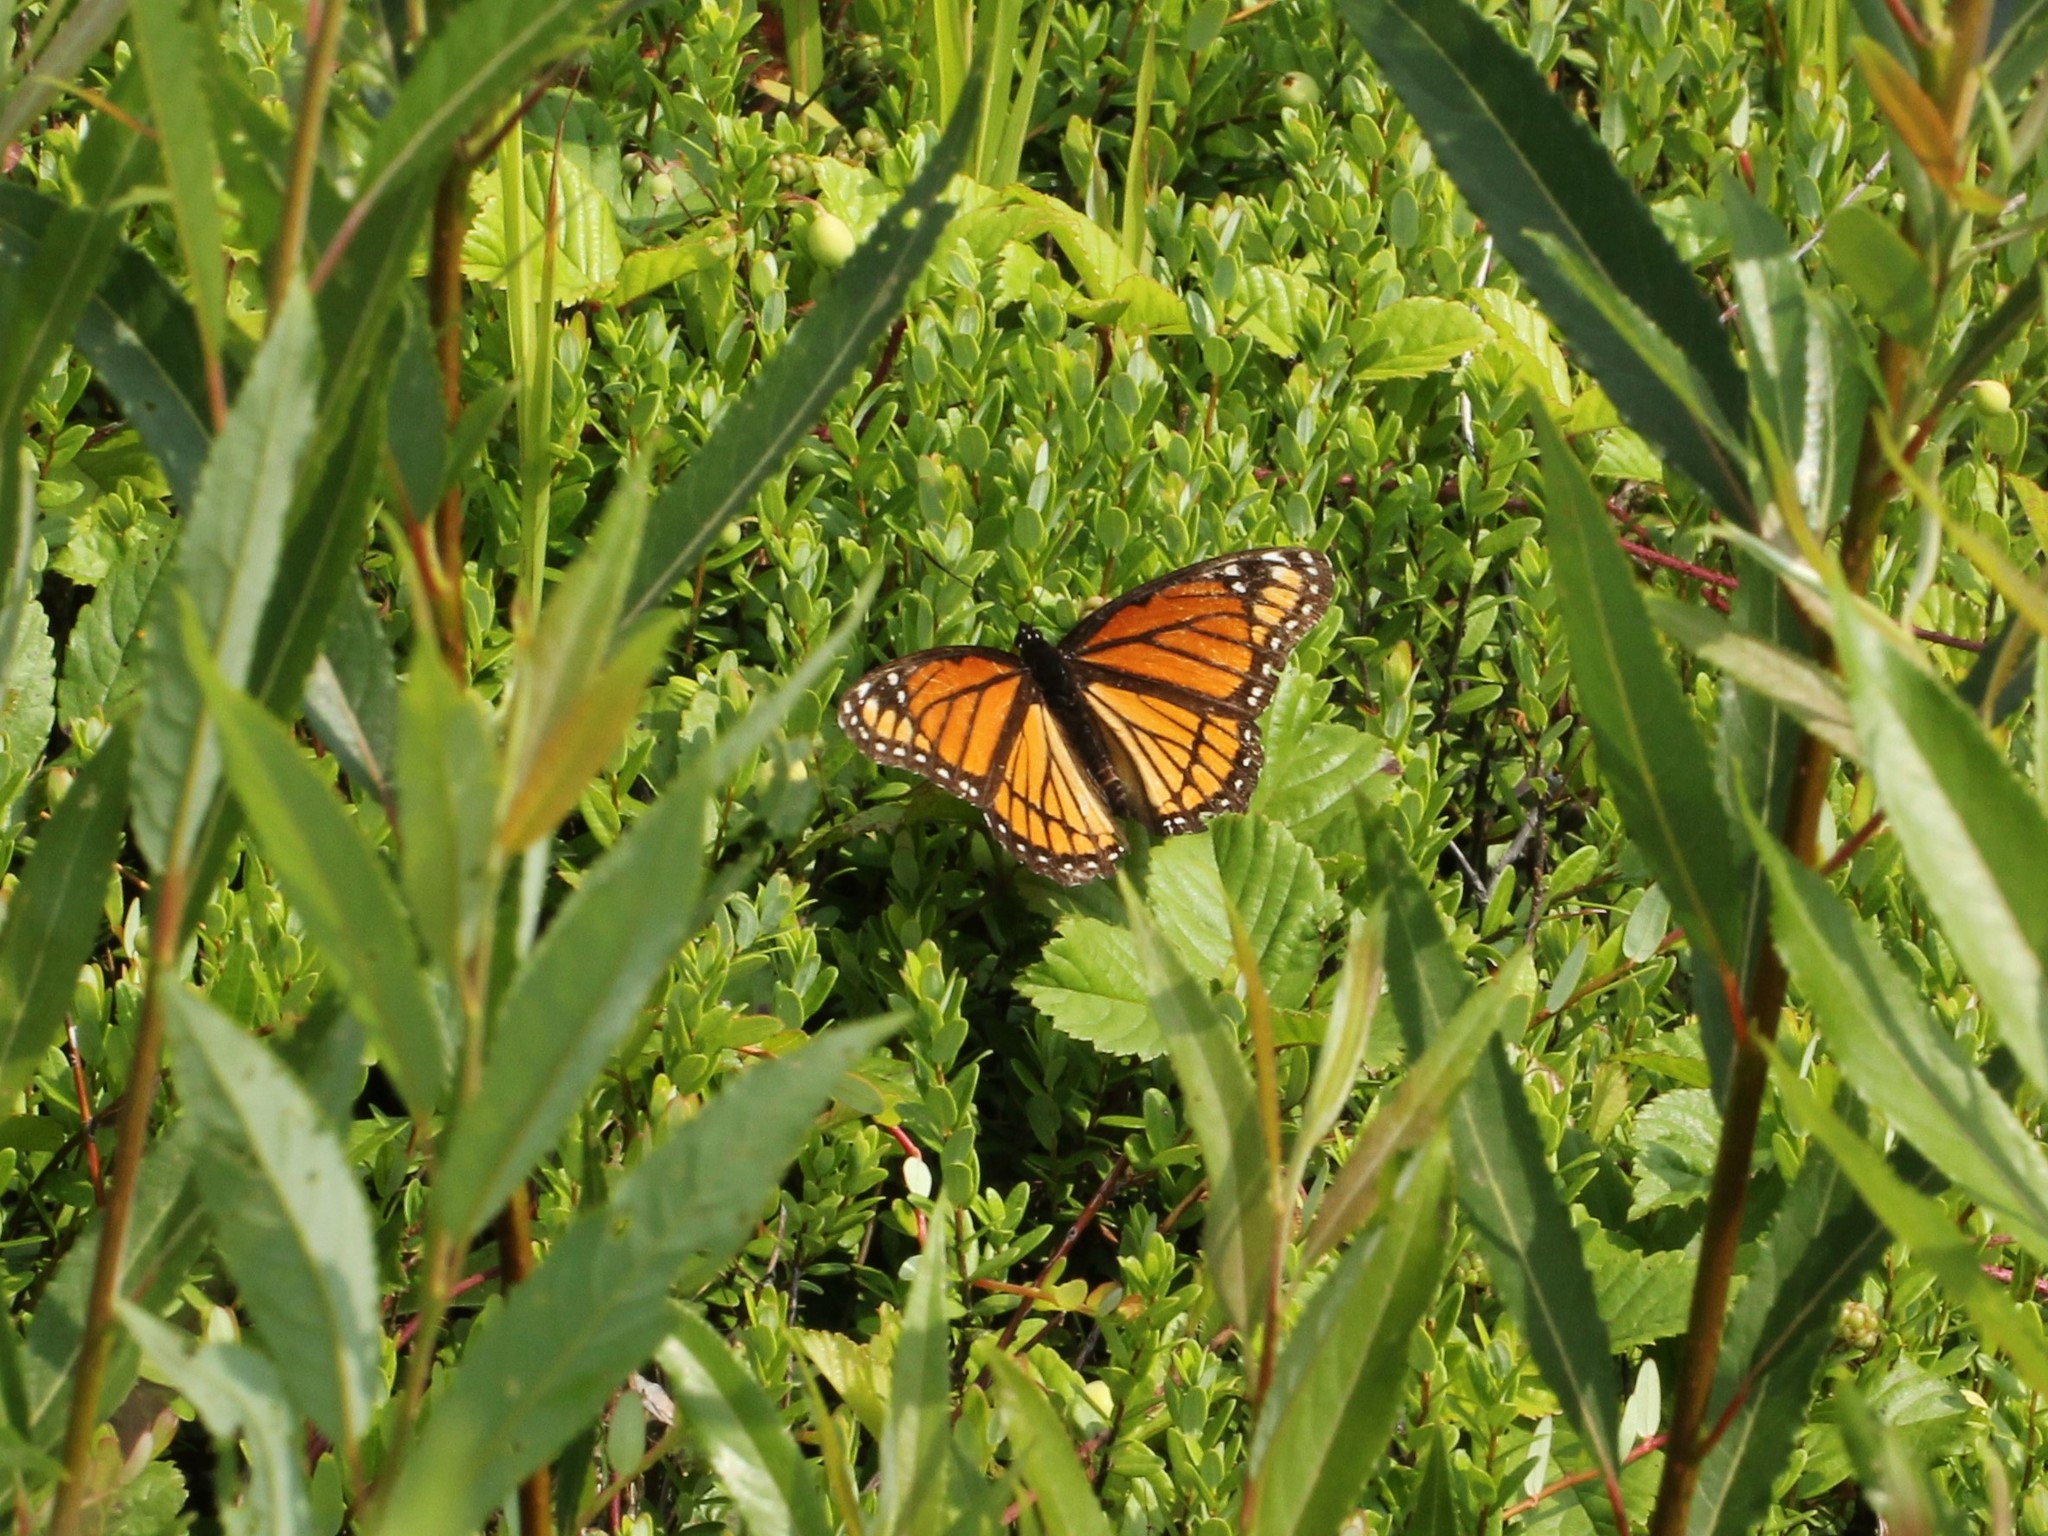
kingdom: Animalia
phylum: Arthropoda
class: Insecta
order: Lepidoptera
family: Nymphalidae
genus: Limenitis
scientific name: Limenitis archippus
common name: Viceroy
